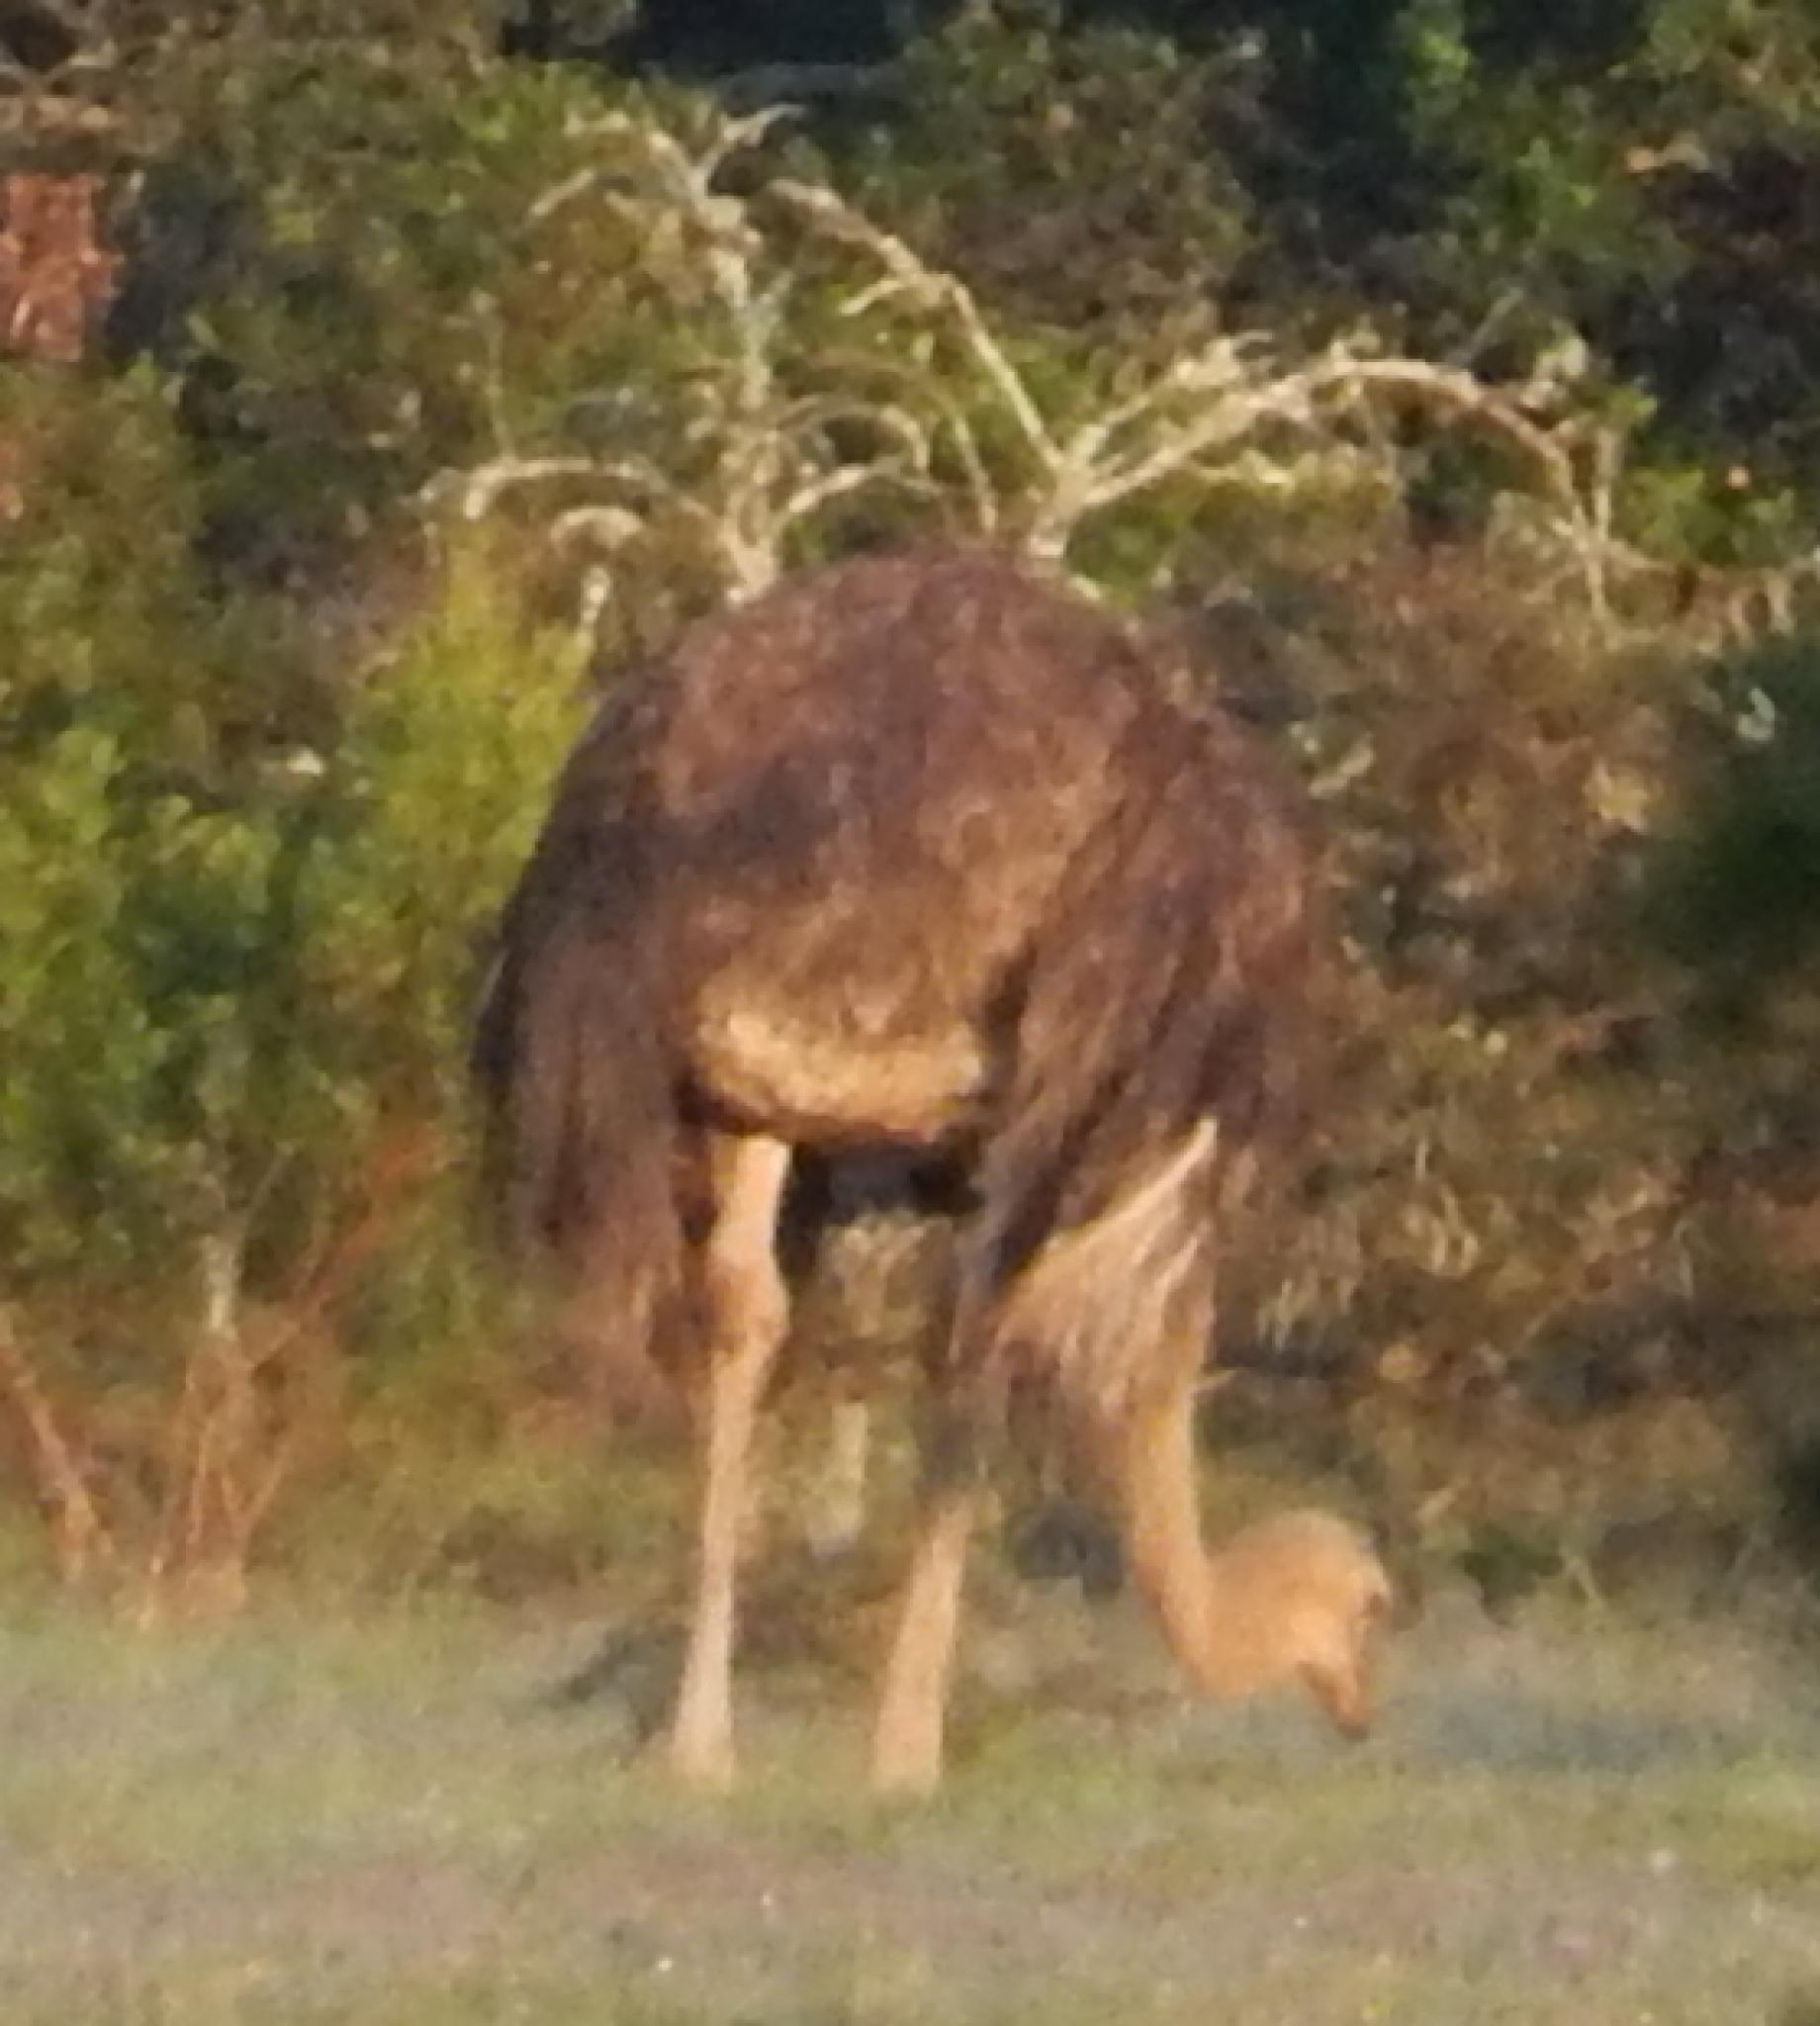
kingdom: Animalia
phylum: Chordata
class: Aves
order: Struthioniformes
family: Struthionidae
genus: Struthio
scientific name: Struthio camelus
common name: Common ostrich
